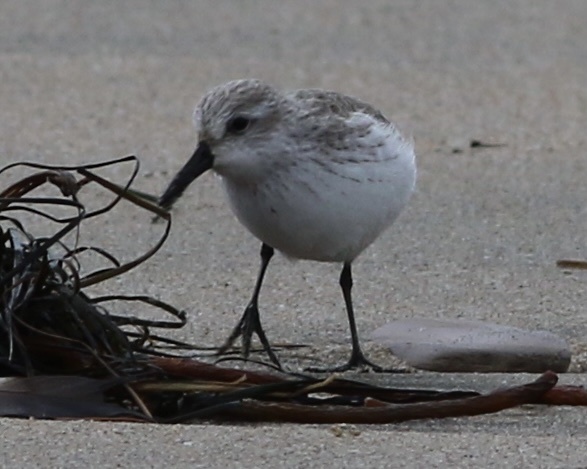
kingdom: Animalia
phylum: Chordata
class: Aves
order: Charadriiformes
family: Scolopacidae
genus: Calidris
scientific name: Calidris mauri
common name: Western sandpiper
